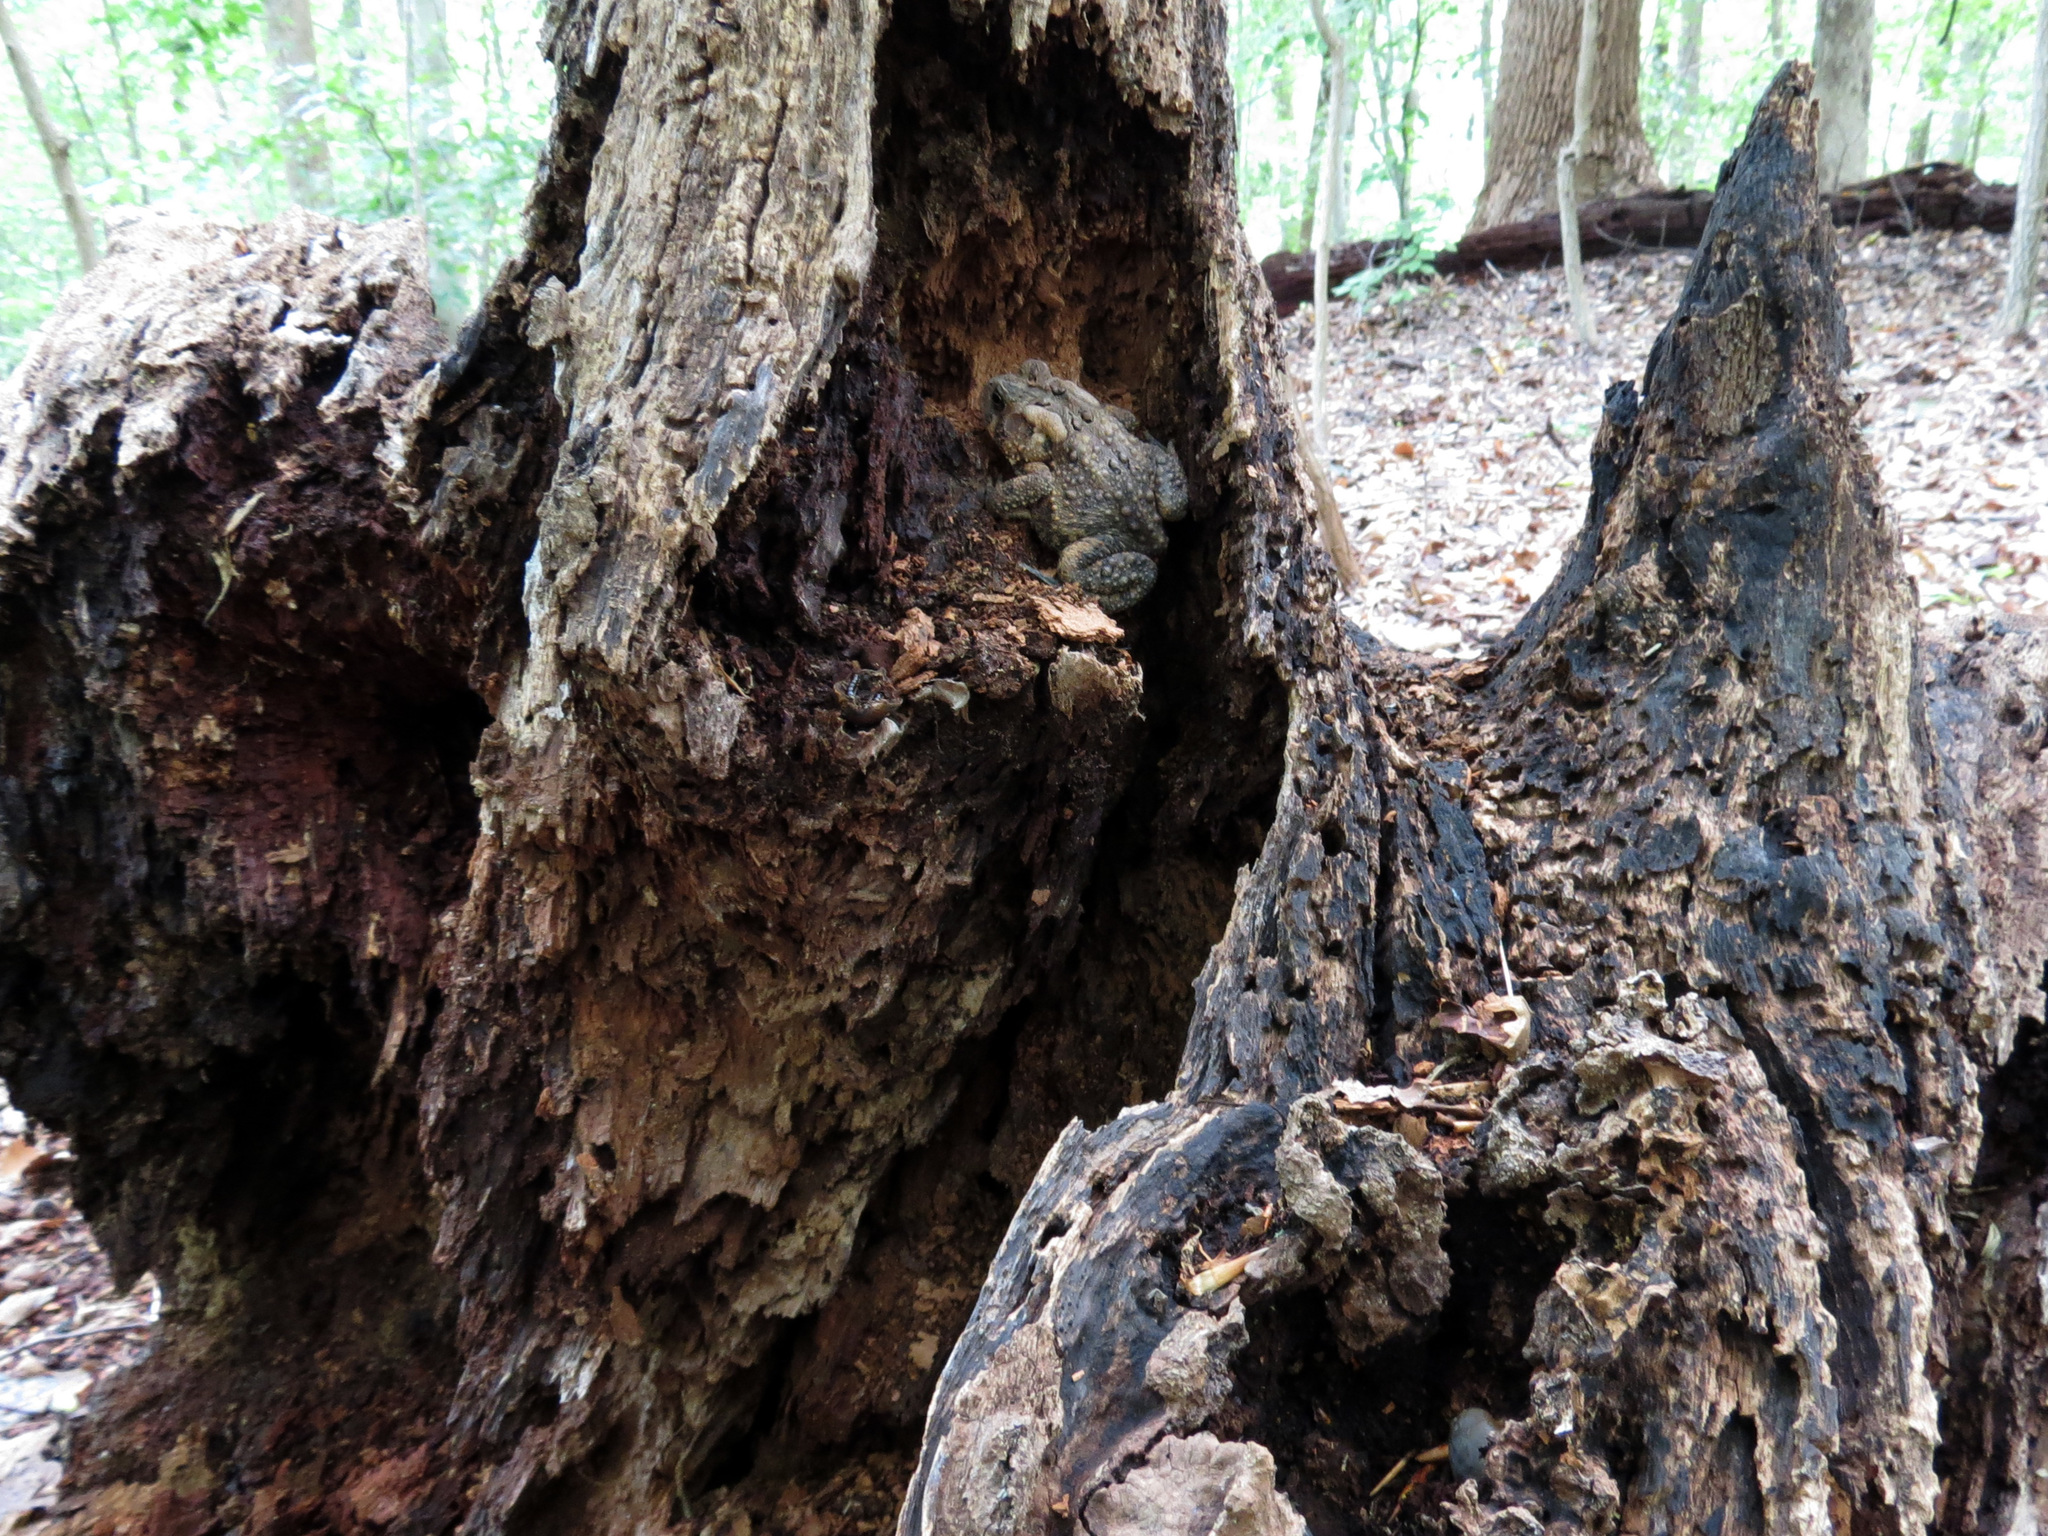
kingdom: Animalia
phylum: Chordata
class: Amphibia
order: Anura
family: Bufonidae
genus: Anaxyrus
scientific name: Anaxyrus americanus
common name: American toad
